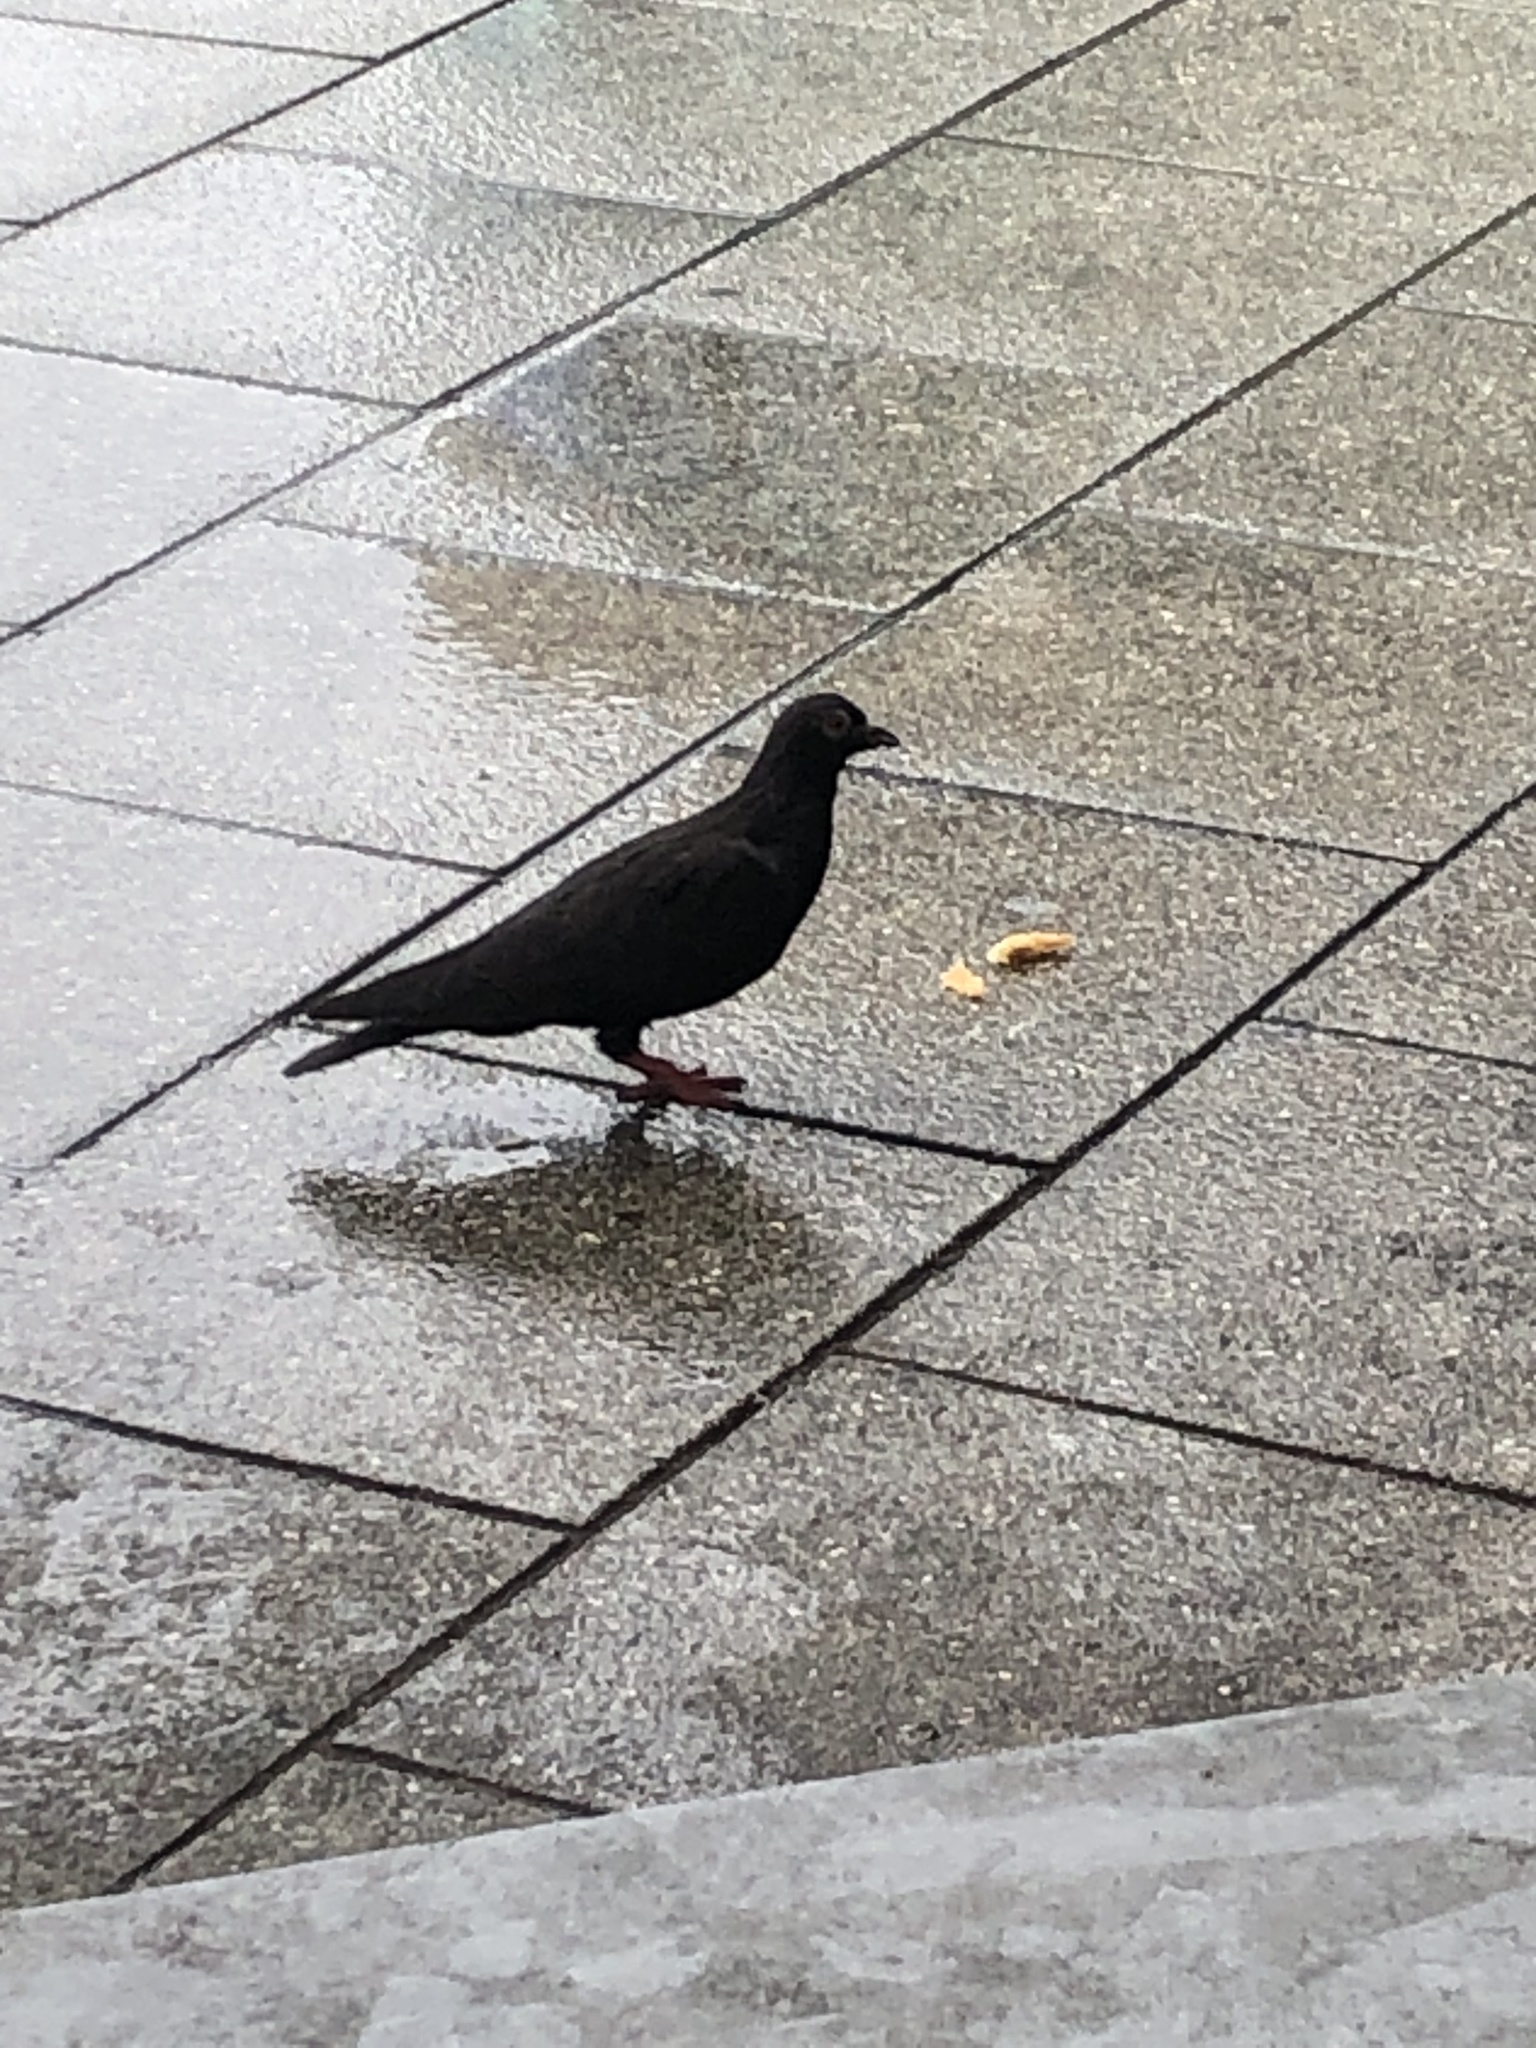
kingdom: Animalia
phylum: Chordata
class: Aves
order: Columbiformes
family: Columbidae
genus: Columba
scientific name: Columba livia
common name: Rock pigeon
